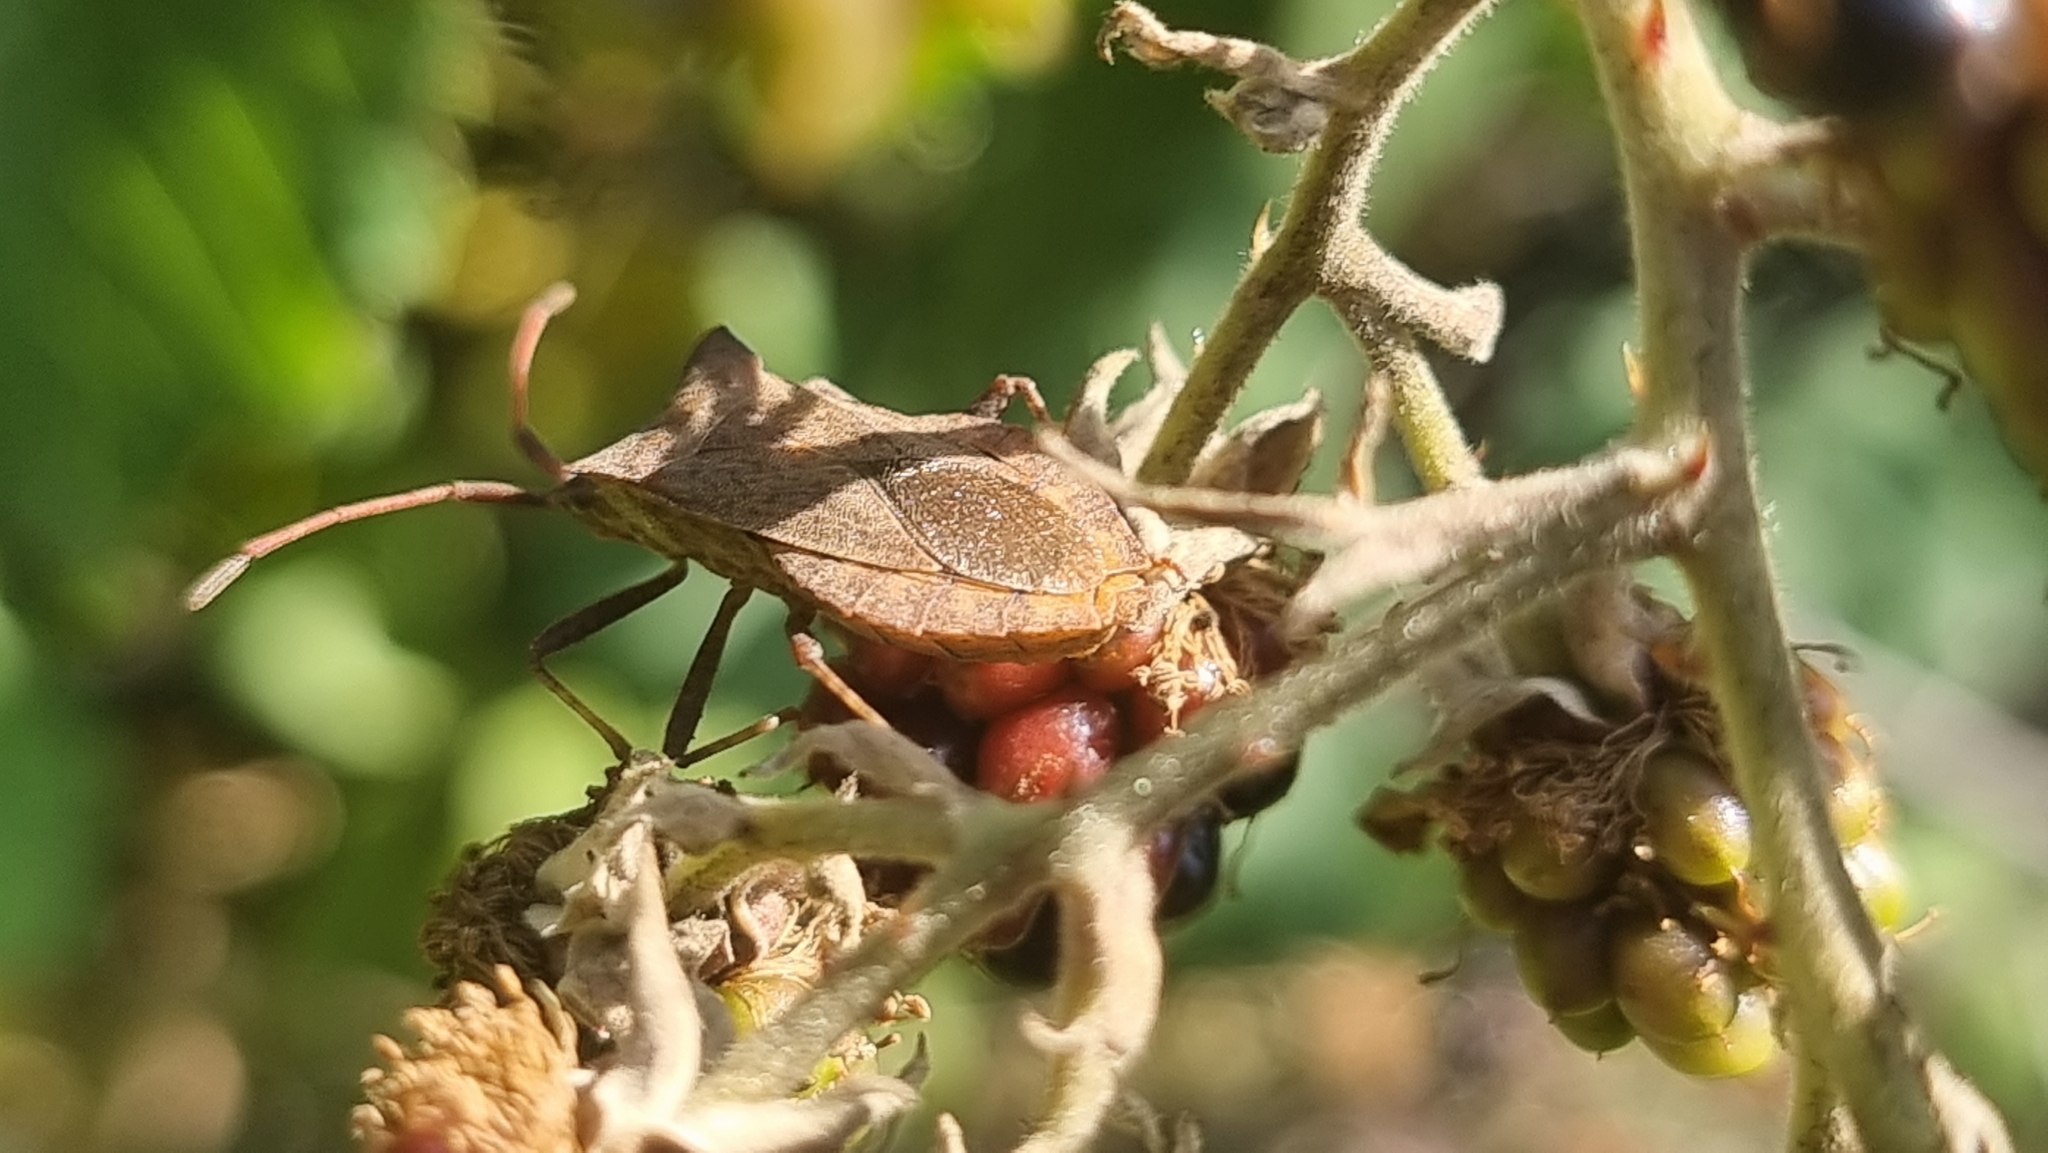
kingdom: Animalia
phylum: Arthropoda
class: Insecta
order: Hemiptera
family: Coreidae
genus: Coreus
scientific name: Coreus marginatus
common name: Dock bug
